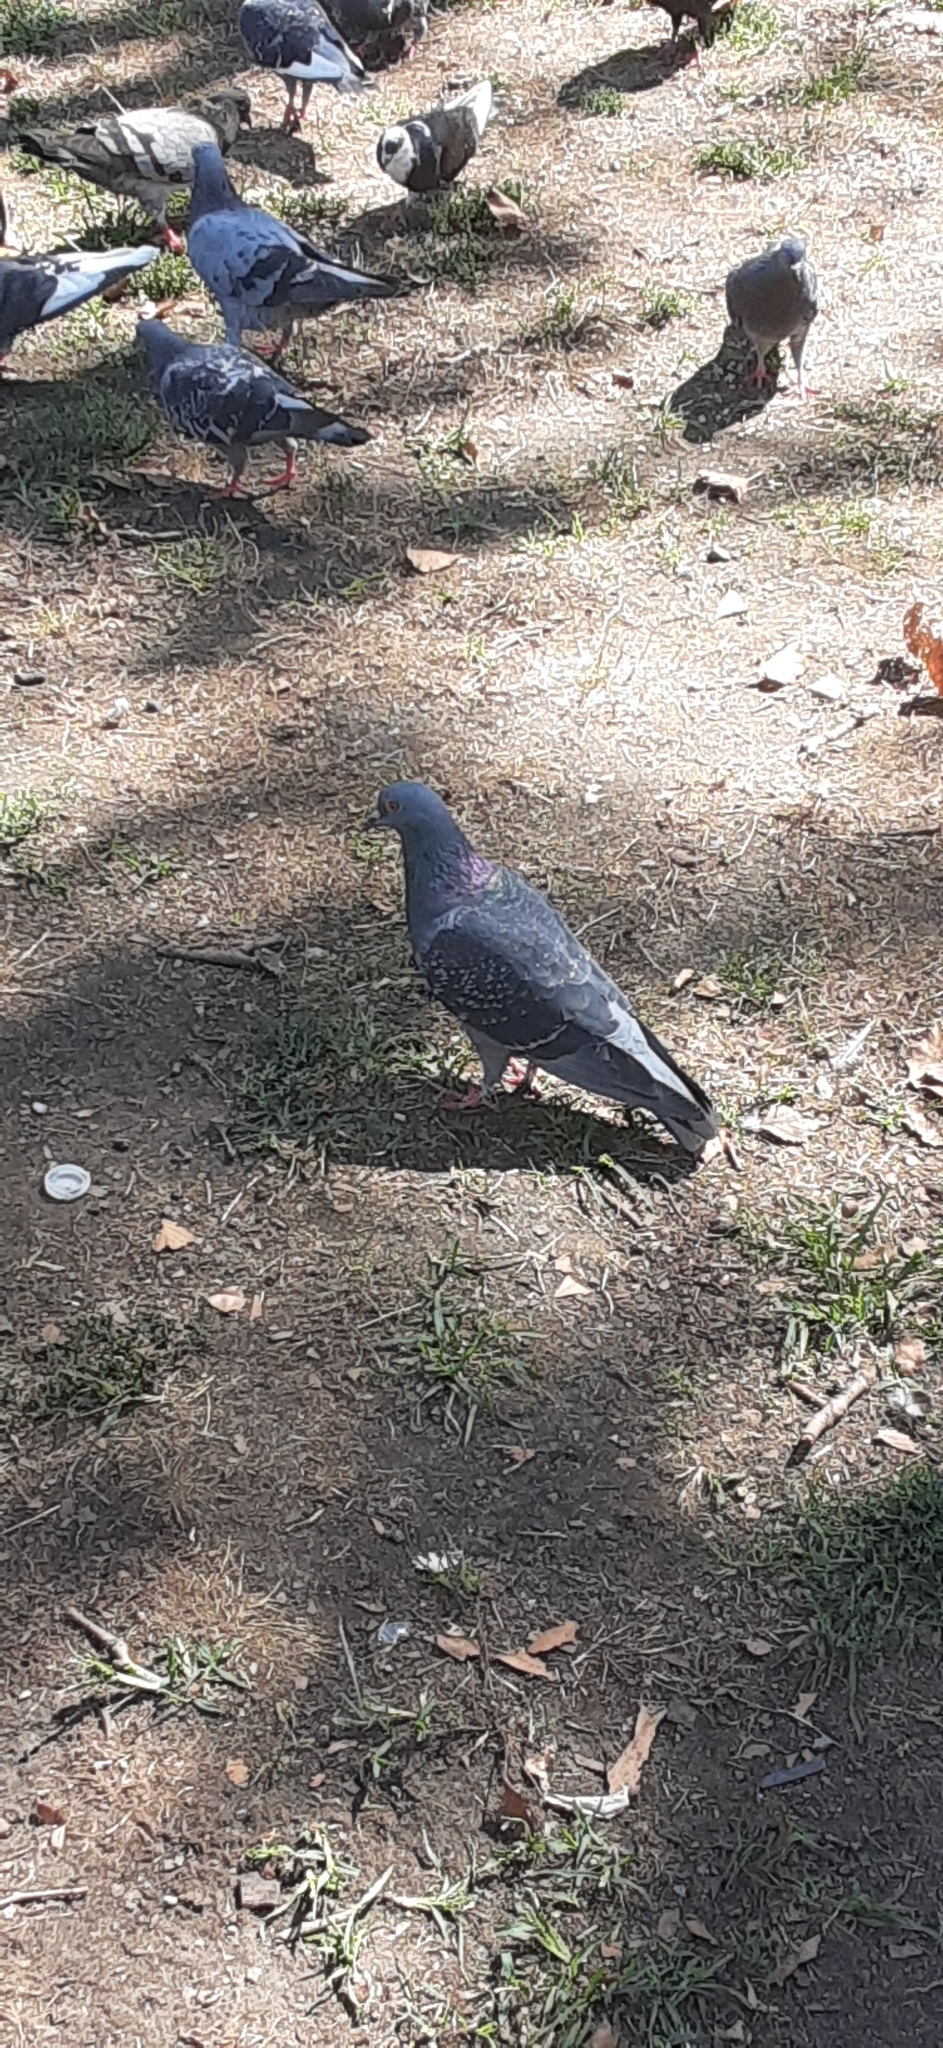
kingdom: Animalia
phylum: Chordata
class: Aves
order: Columbiformes
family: Columbidae
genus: Columba
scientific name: Columba livia
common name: Rock pigeon
